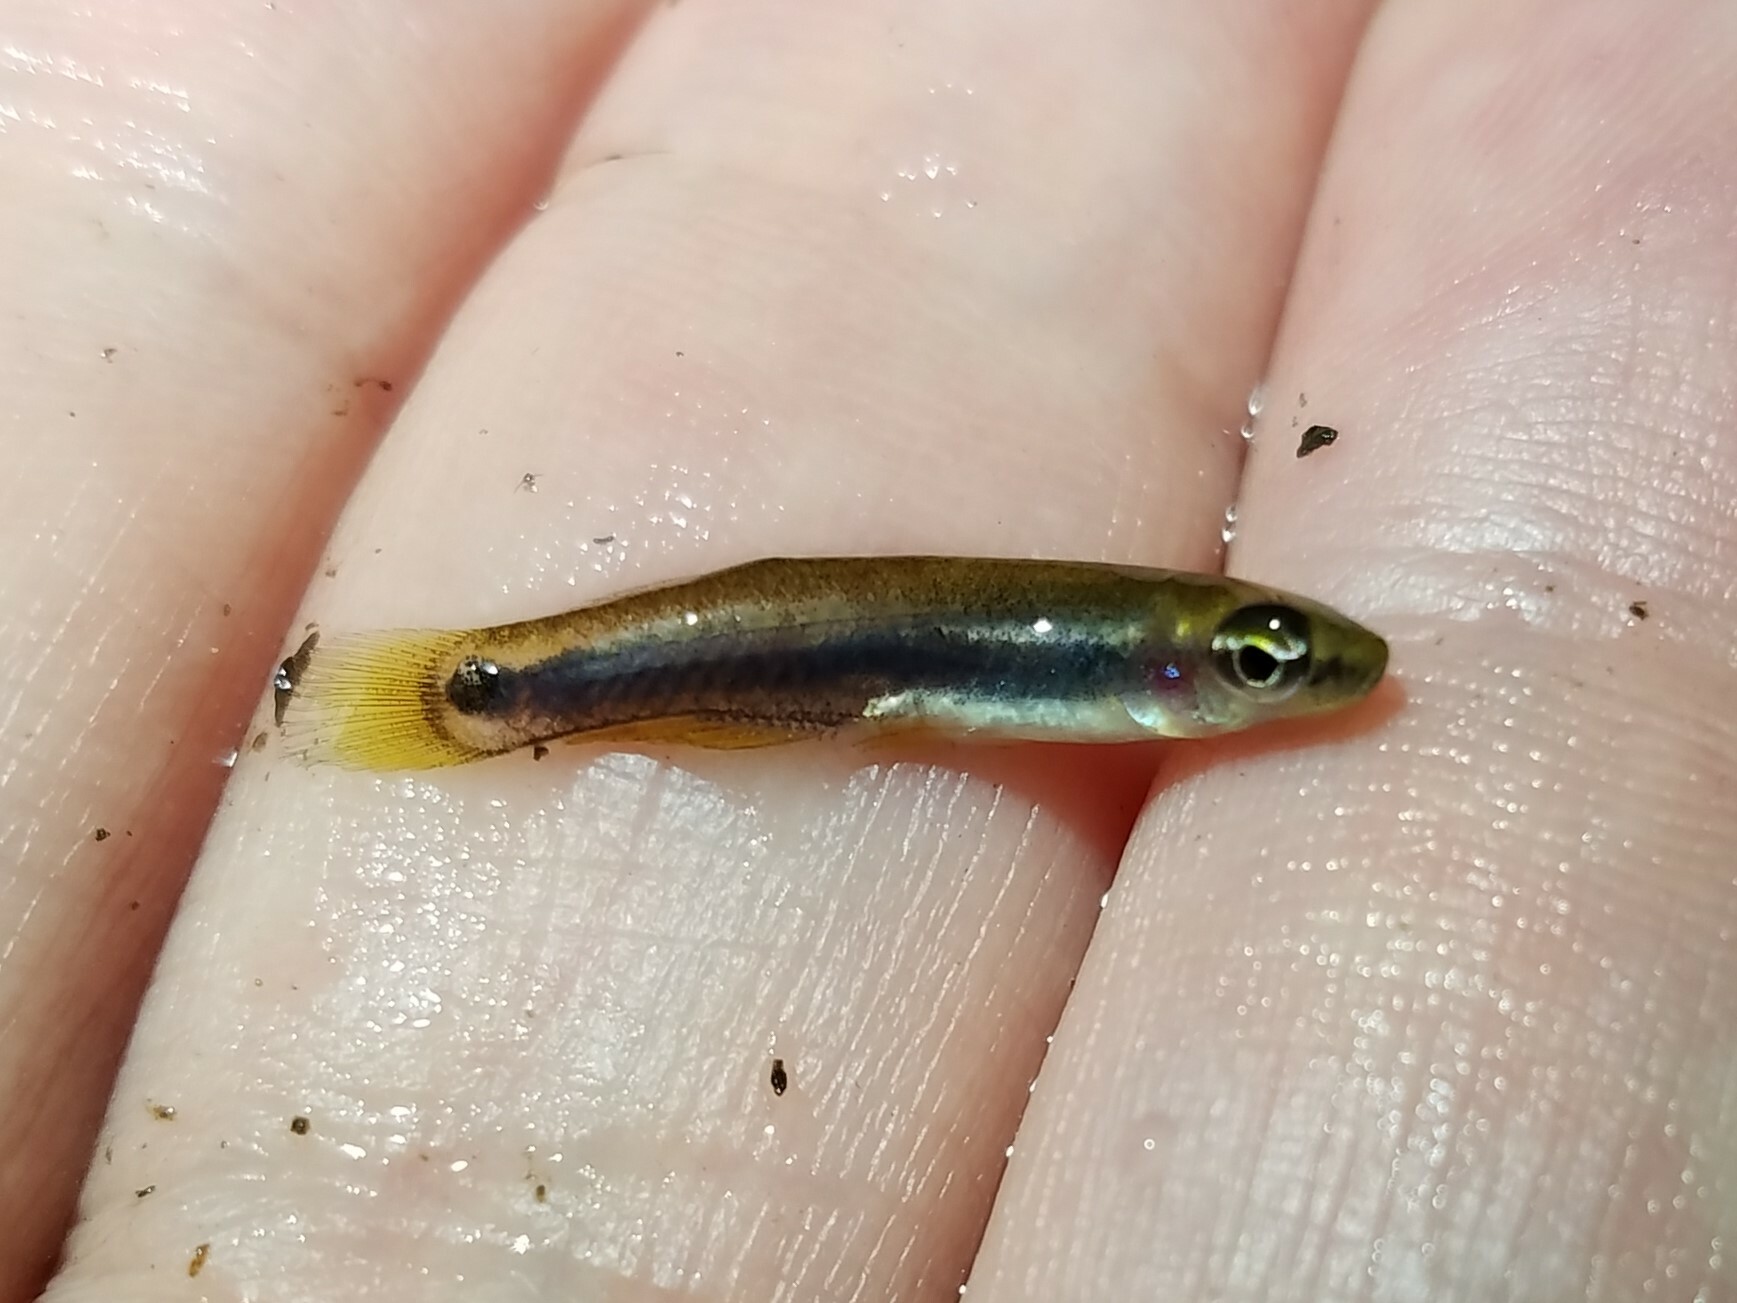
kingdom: Animalia
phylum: Chordata
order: Cyprinodontiformes
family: Fundulidae
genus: Leptolucania
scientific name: Leptolucania ommata
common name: Pygmy killifish
